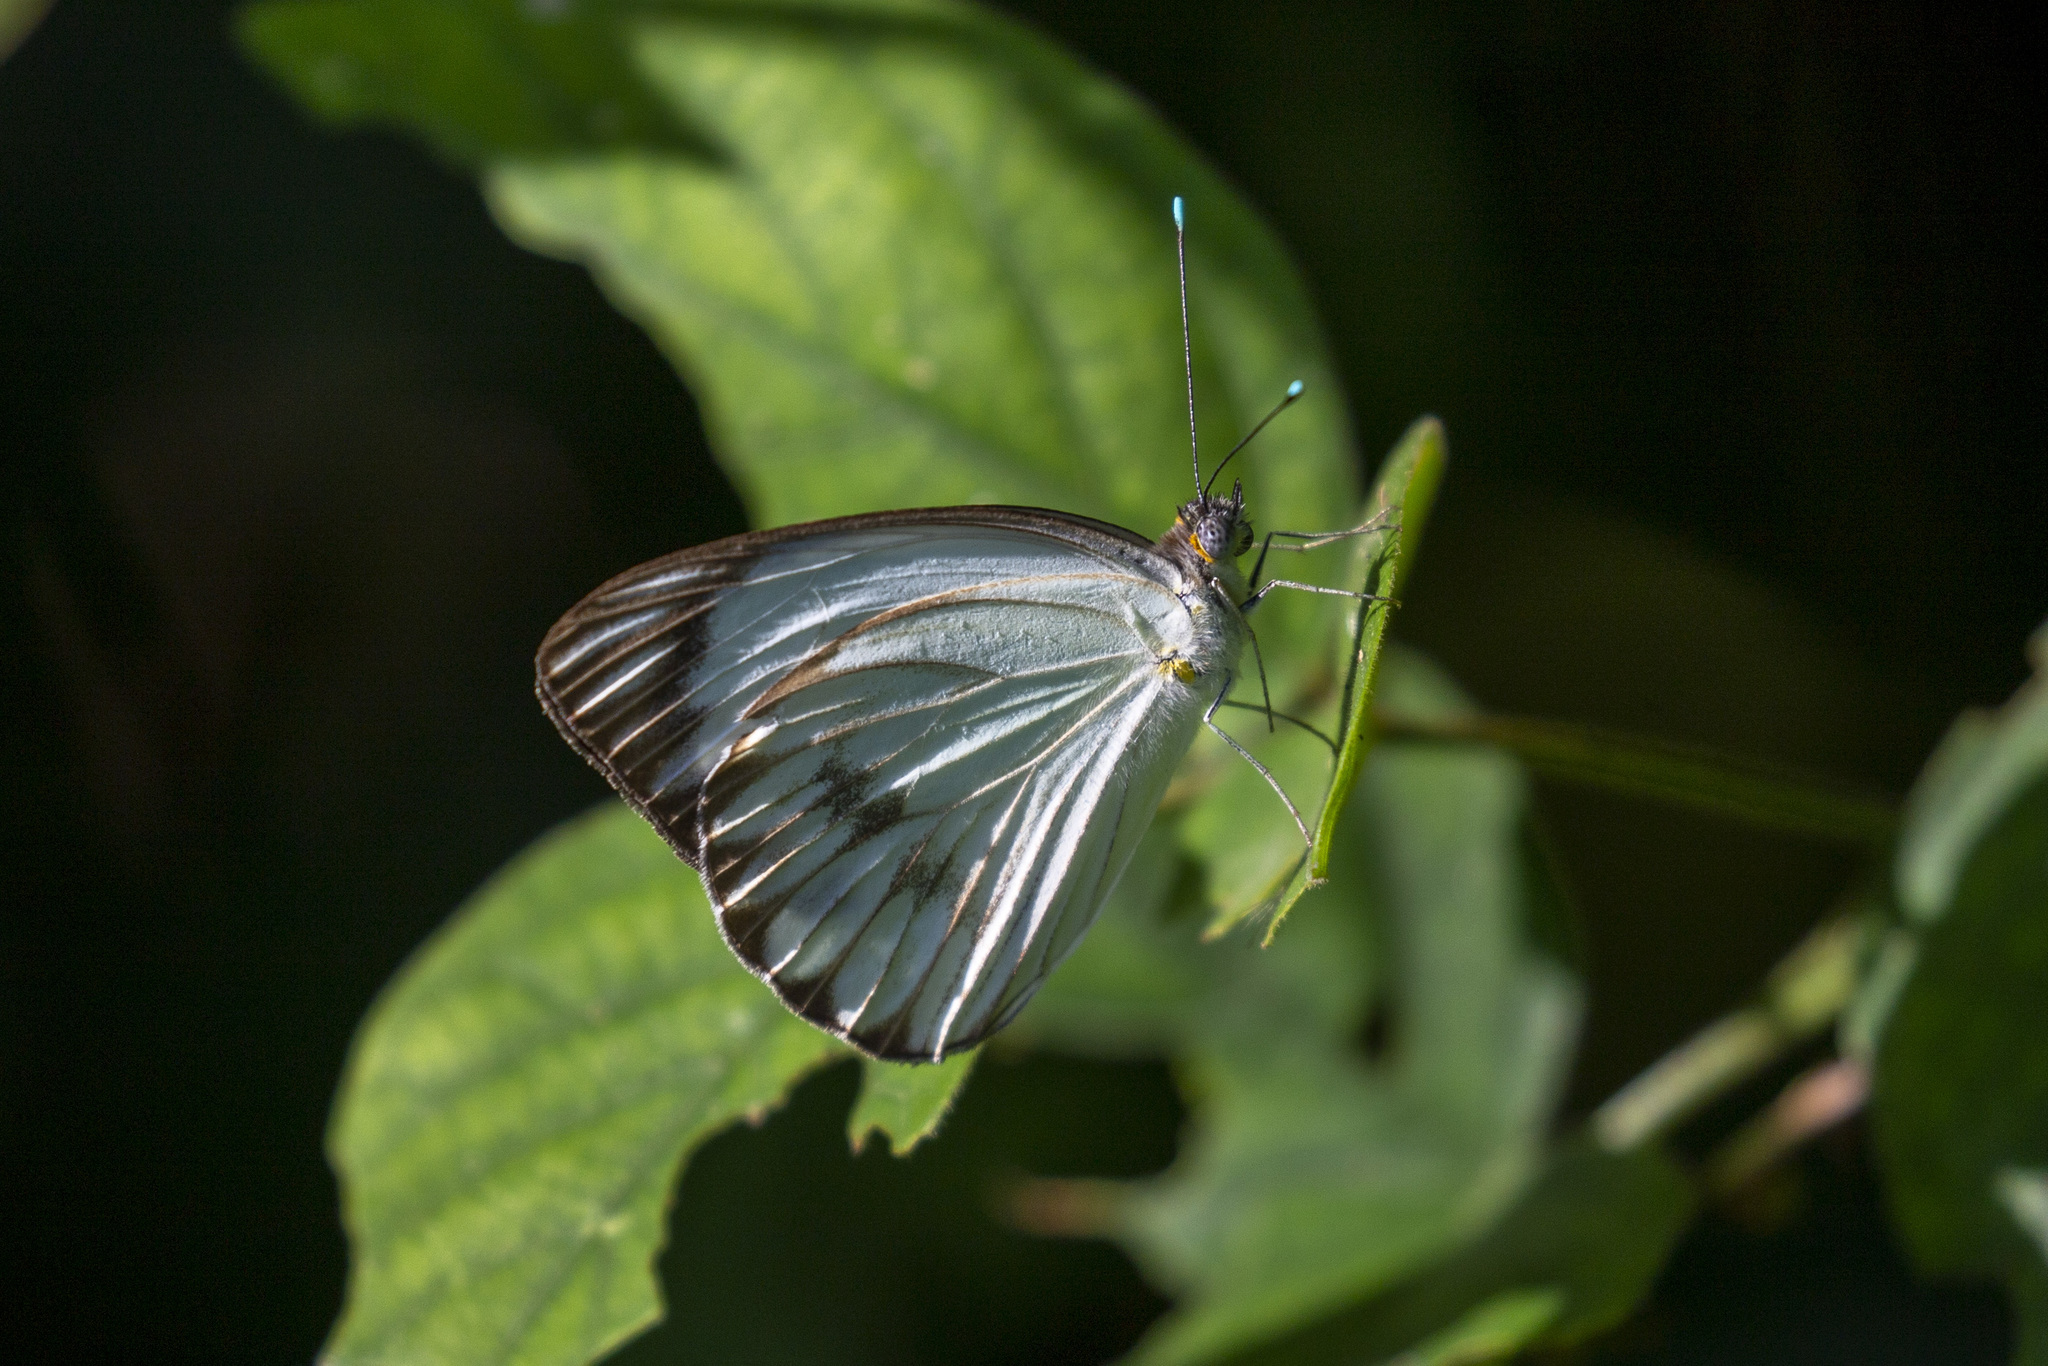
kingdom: Animalia
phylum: Arthropoda
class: Insecta
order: Lepidoptera
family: Pieridae
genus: Ascia
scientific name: Ascia monuste
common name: Great southern white
